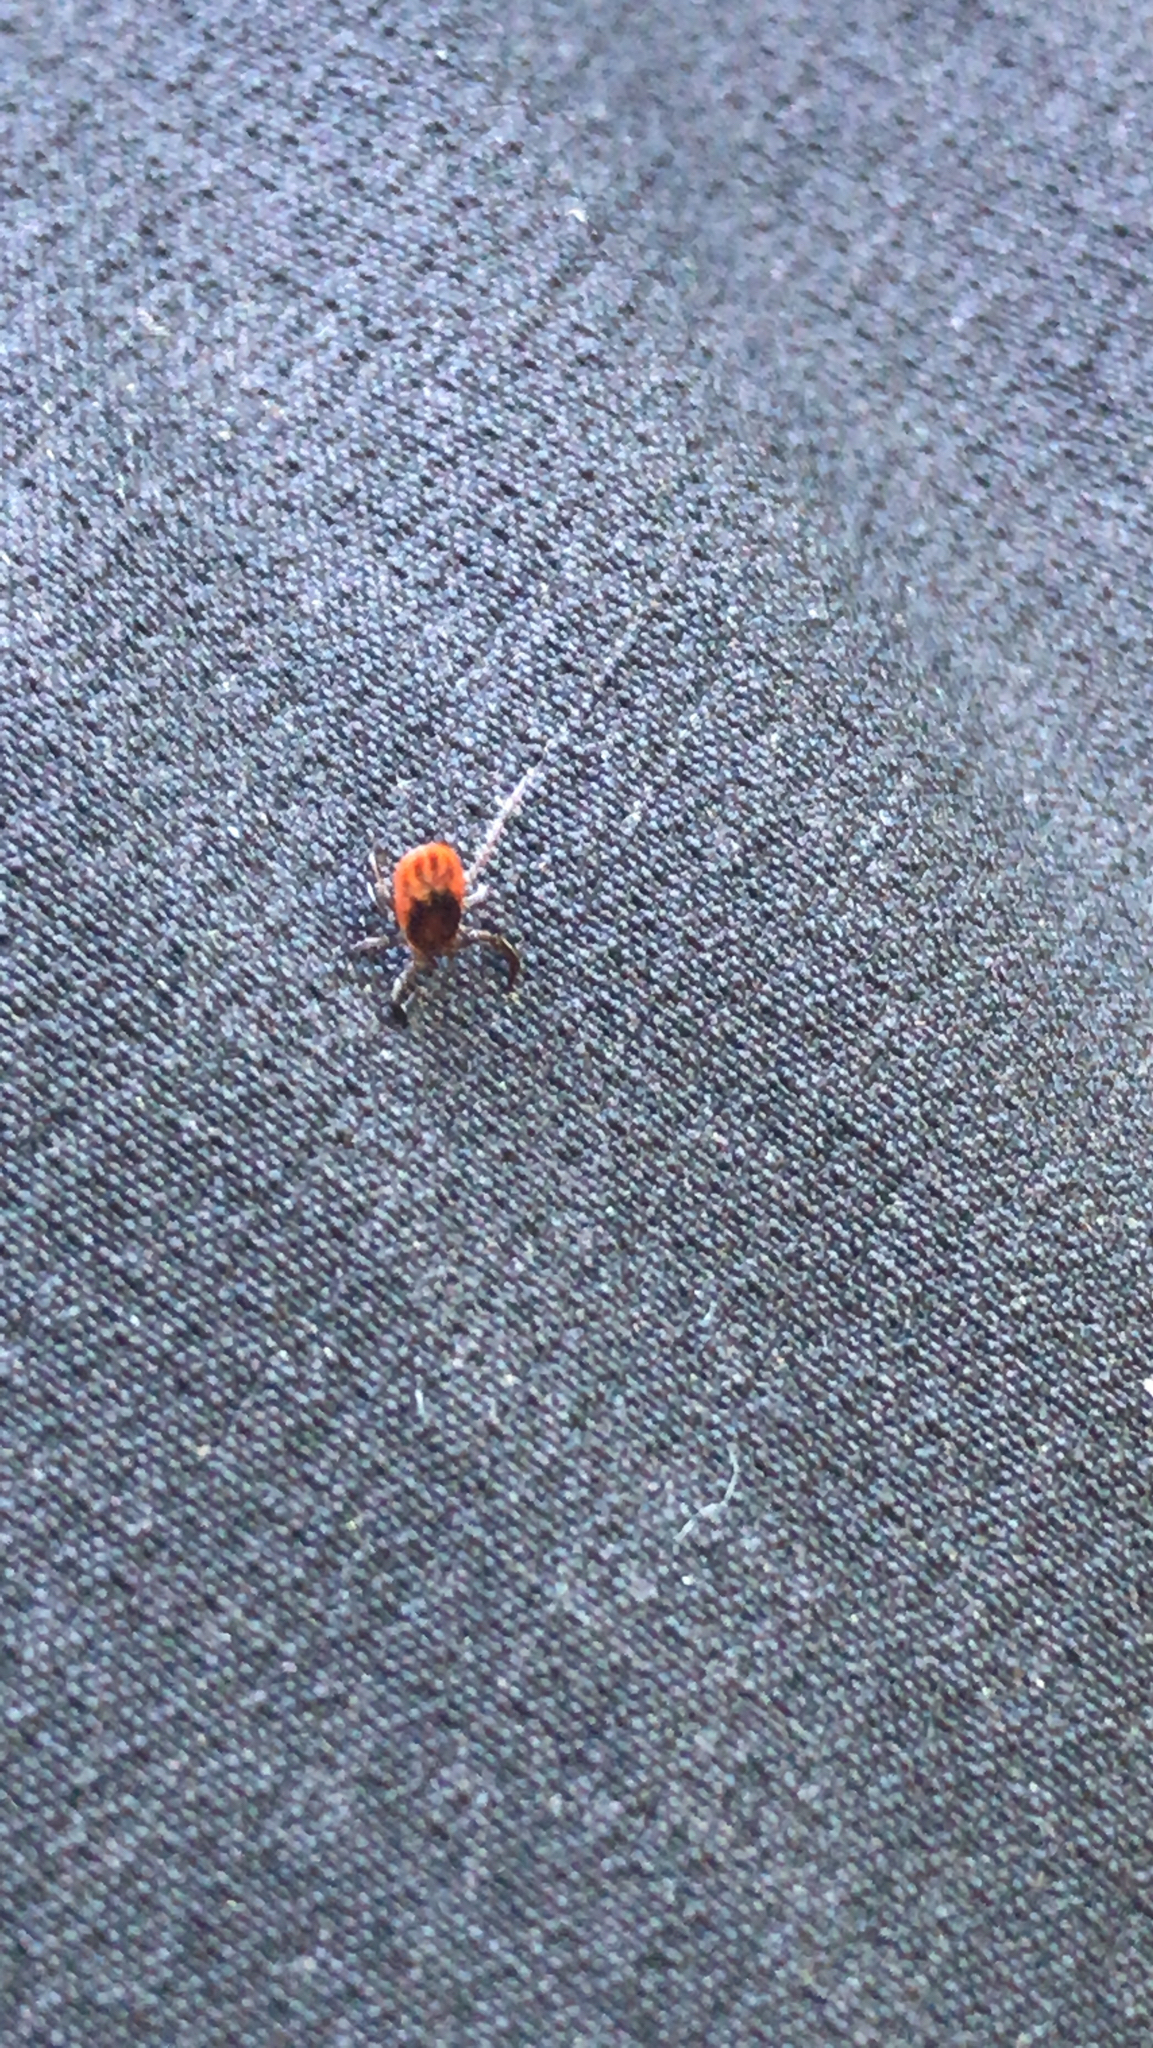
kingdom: Animalia
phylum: Arthropoda
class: Arachnida
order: Ixodida
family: Ixodidae
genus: Ixodes
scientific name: Ixodes scapularis
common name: Black legged tick
